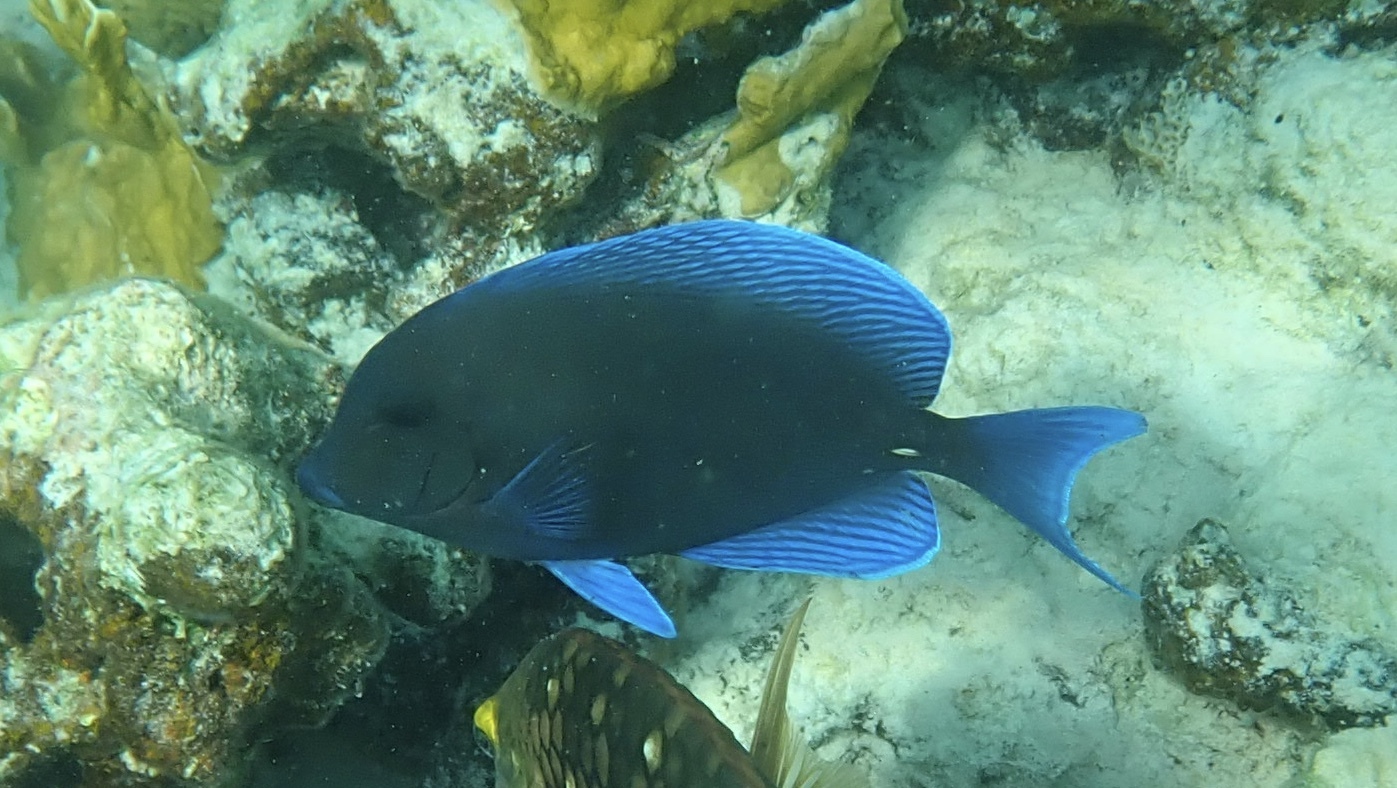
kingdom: Animalia
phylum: Chordata
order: Perciformes
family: Acanthuridae
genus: Acanthurus
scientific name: Acanthurus coeruleus
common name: Blue tang
